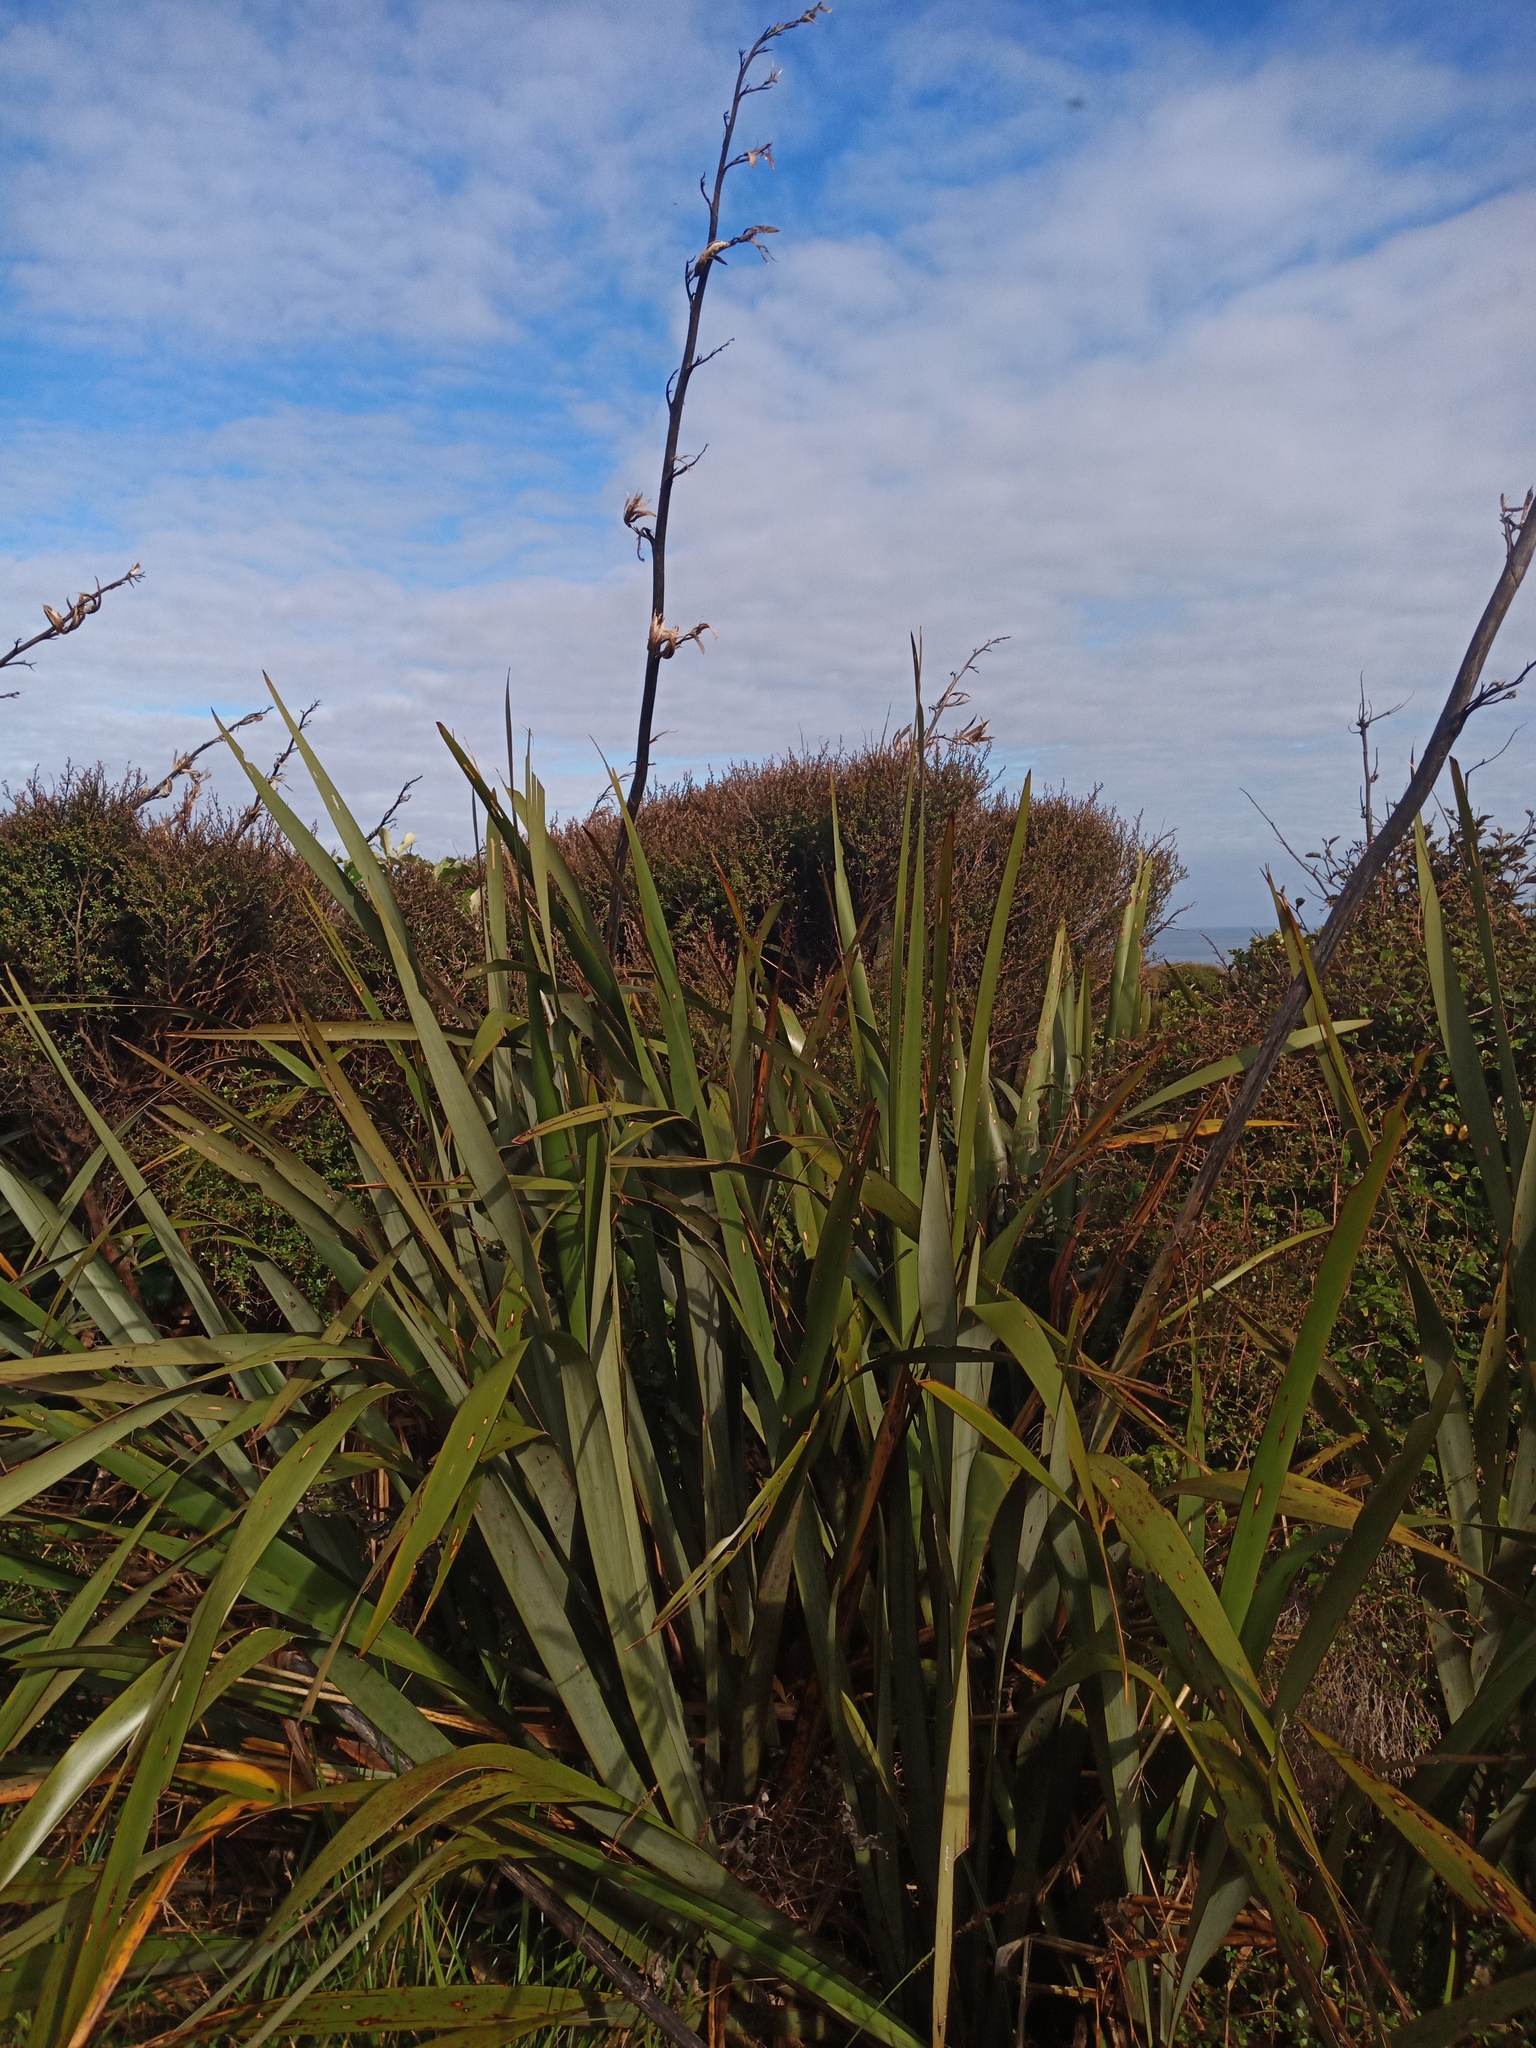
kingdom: Plantae
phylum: Tracheophyta
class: Liliopsida
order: Asparagales
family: Asphodelaceae
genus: Phormium
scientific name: Phormium tenax
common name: New zealand flax
